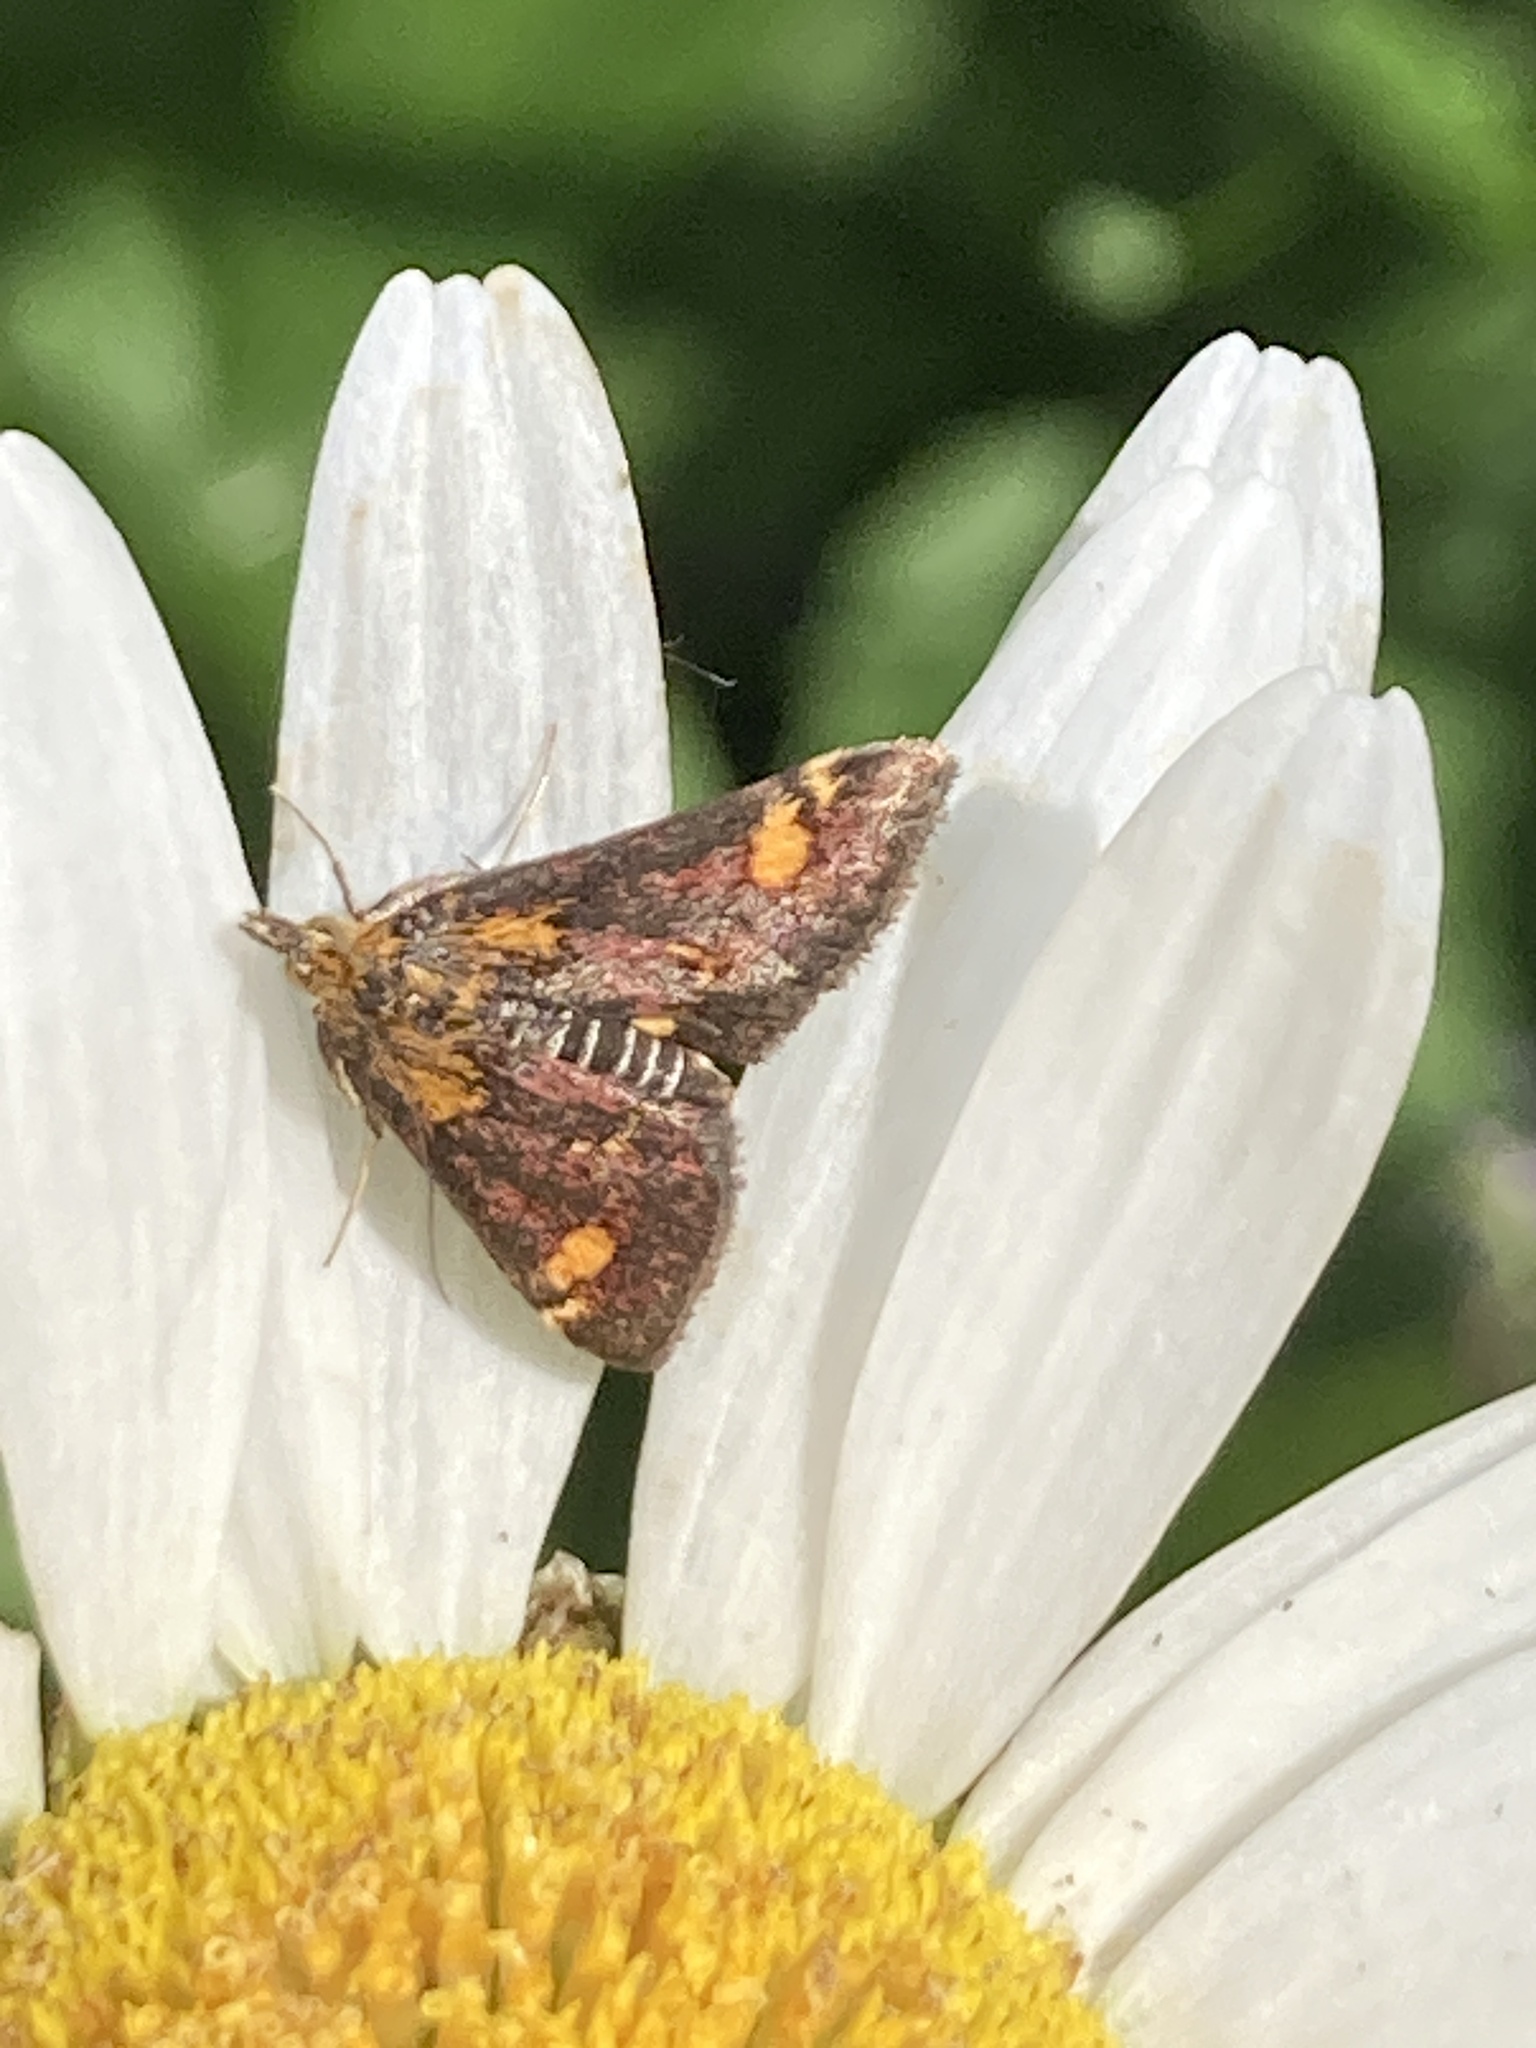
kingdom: Animalia
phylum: Arthropoda
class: Insecta
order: Lepidoptera
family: Crambidae
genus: Pyrausta
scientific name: Pyrausta aurata
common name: Small purple & gold
